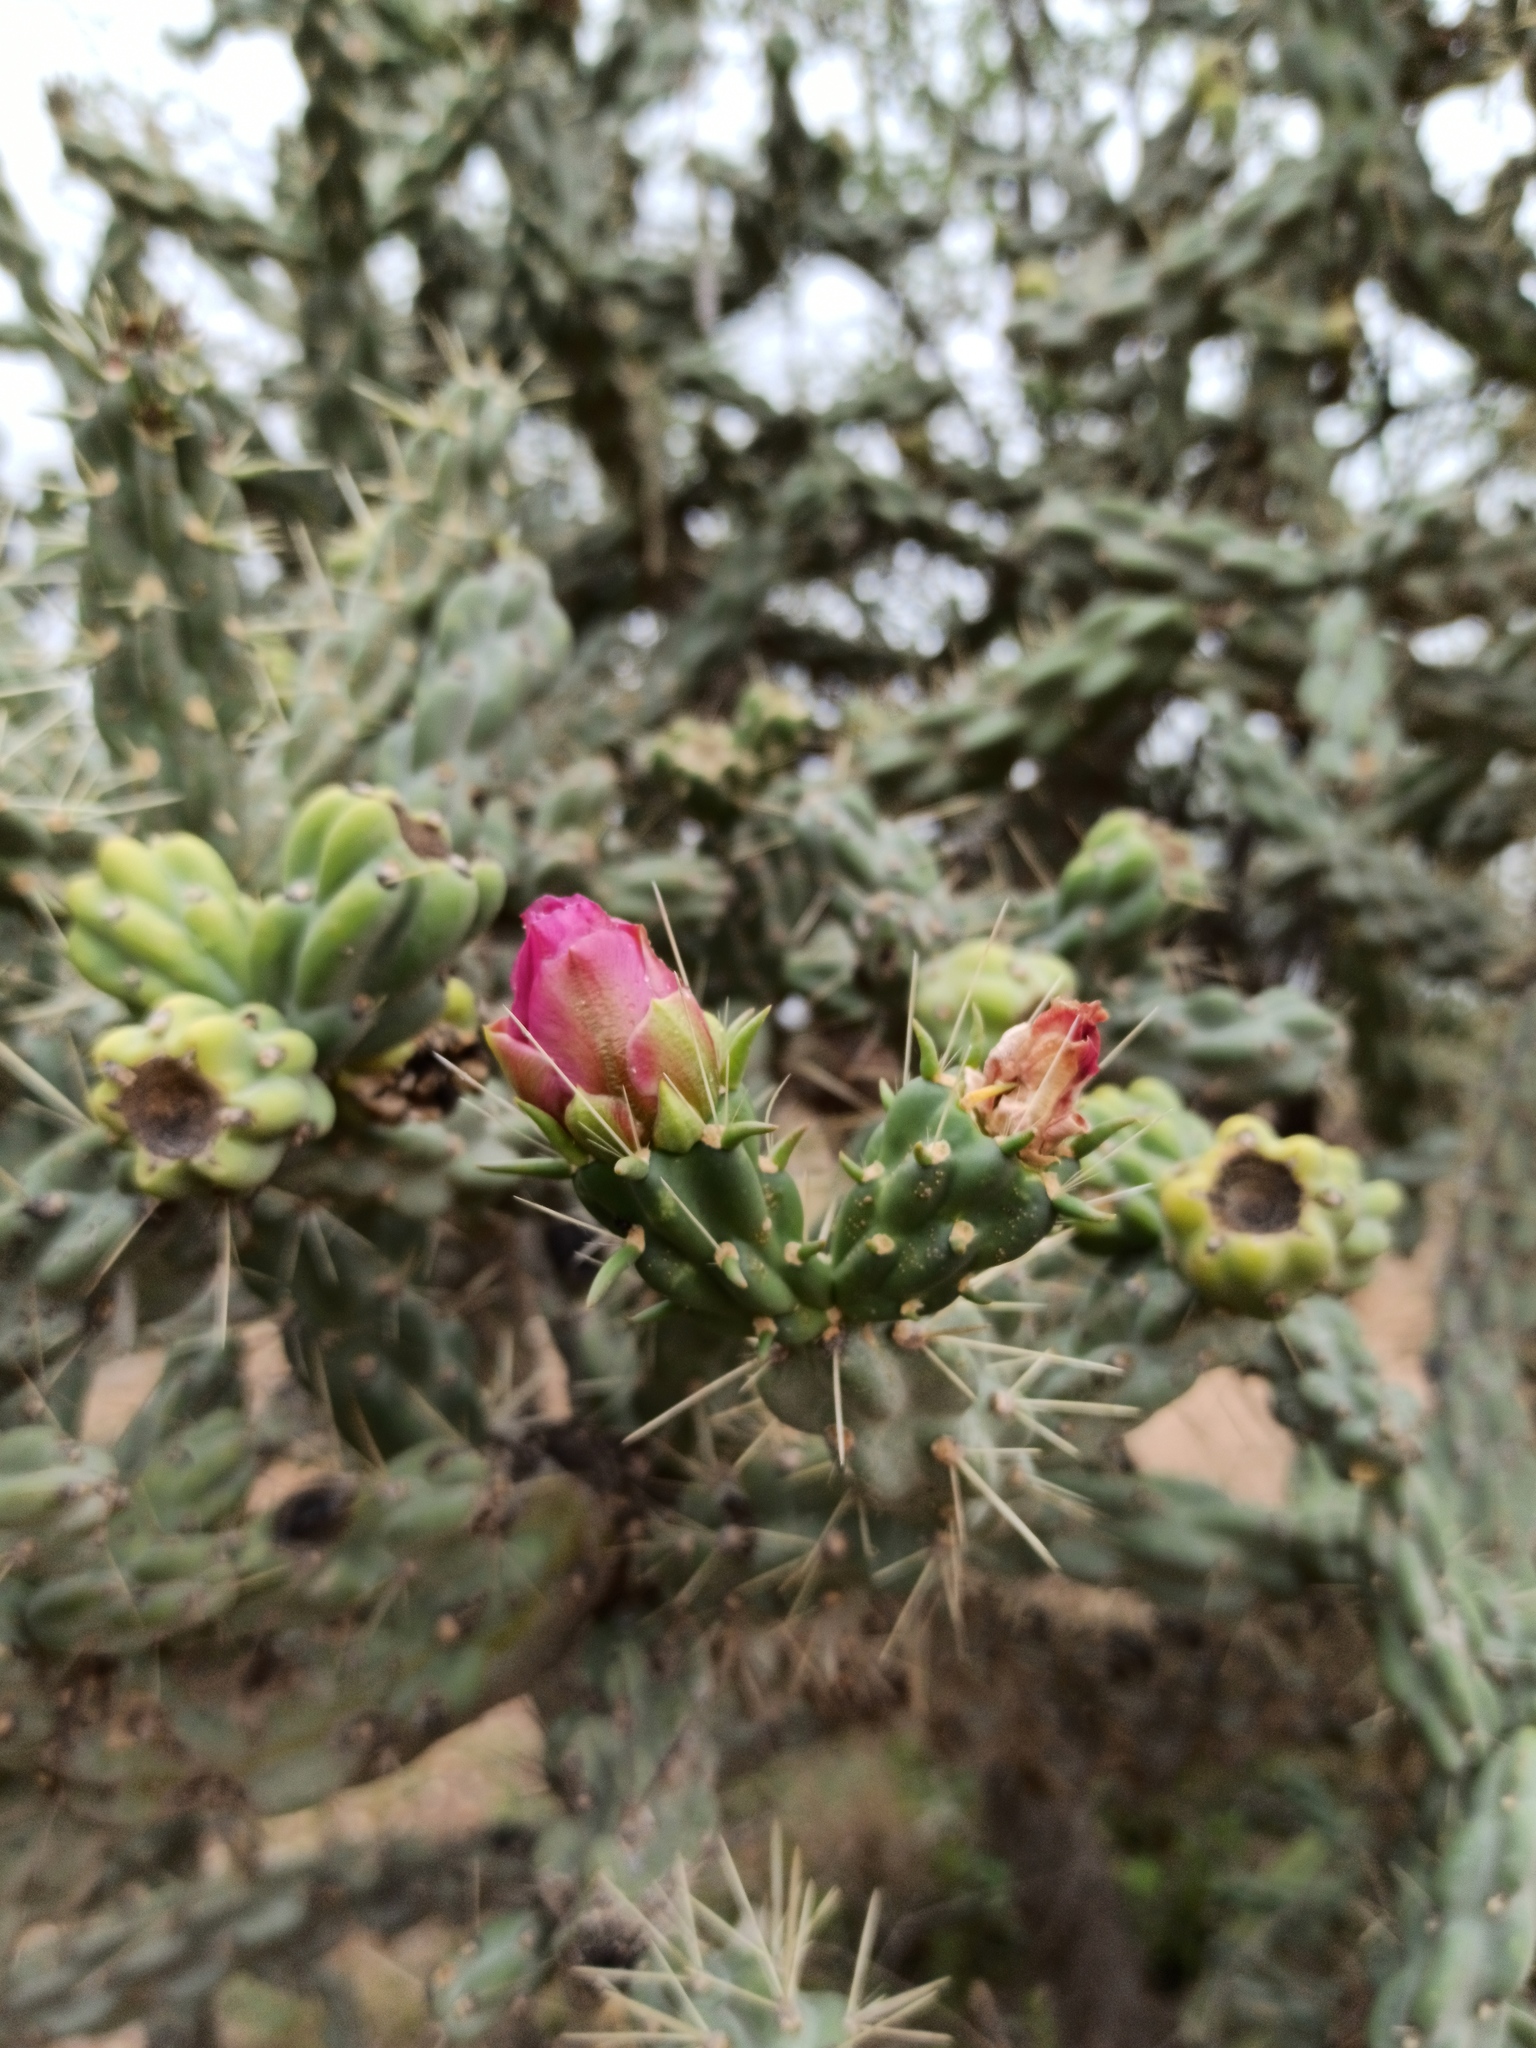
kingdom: Plantae
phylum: Tracheophyta
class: Magnoliopsida
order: Caryophyllales
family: Cactaceae
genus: Cylindropuntia
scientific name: Cylindropuntia imbricata
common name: Candelabrum cactus
